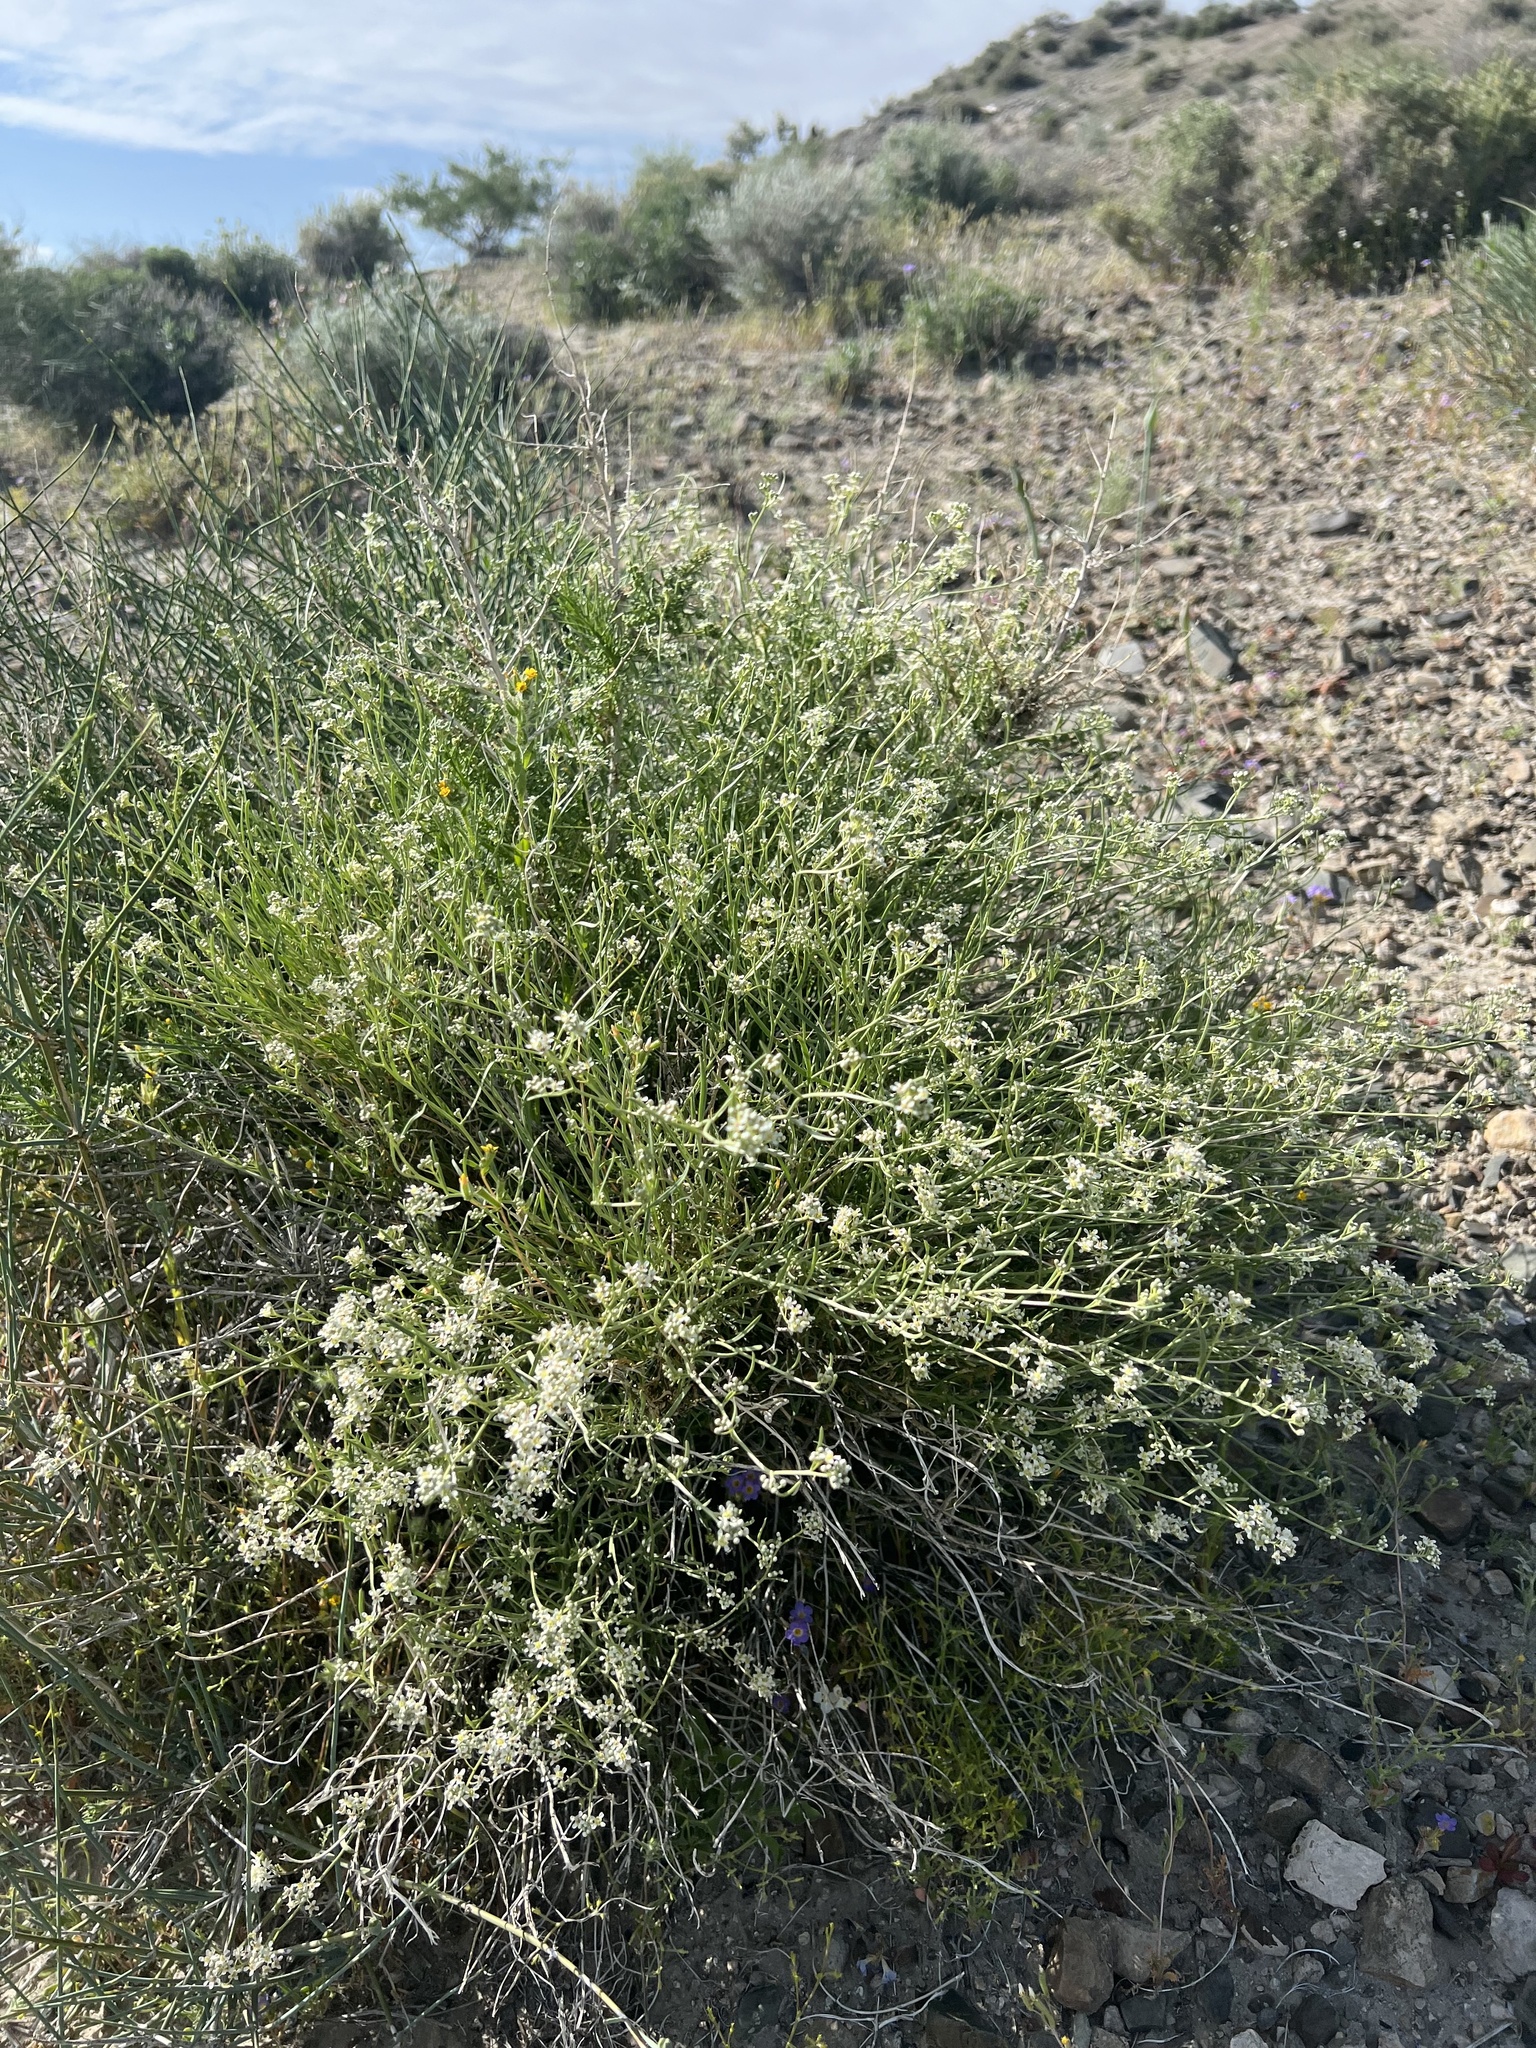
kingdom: Plantae
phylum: Tracheophyta
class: Magnoliopsida
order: Brassicales
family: Brassicaceae
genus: Lepidium
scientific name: Lepidium fremontii
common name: Fremont's pepperwort
